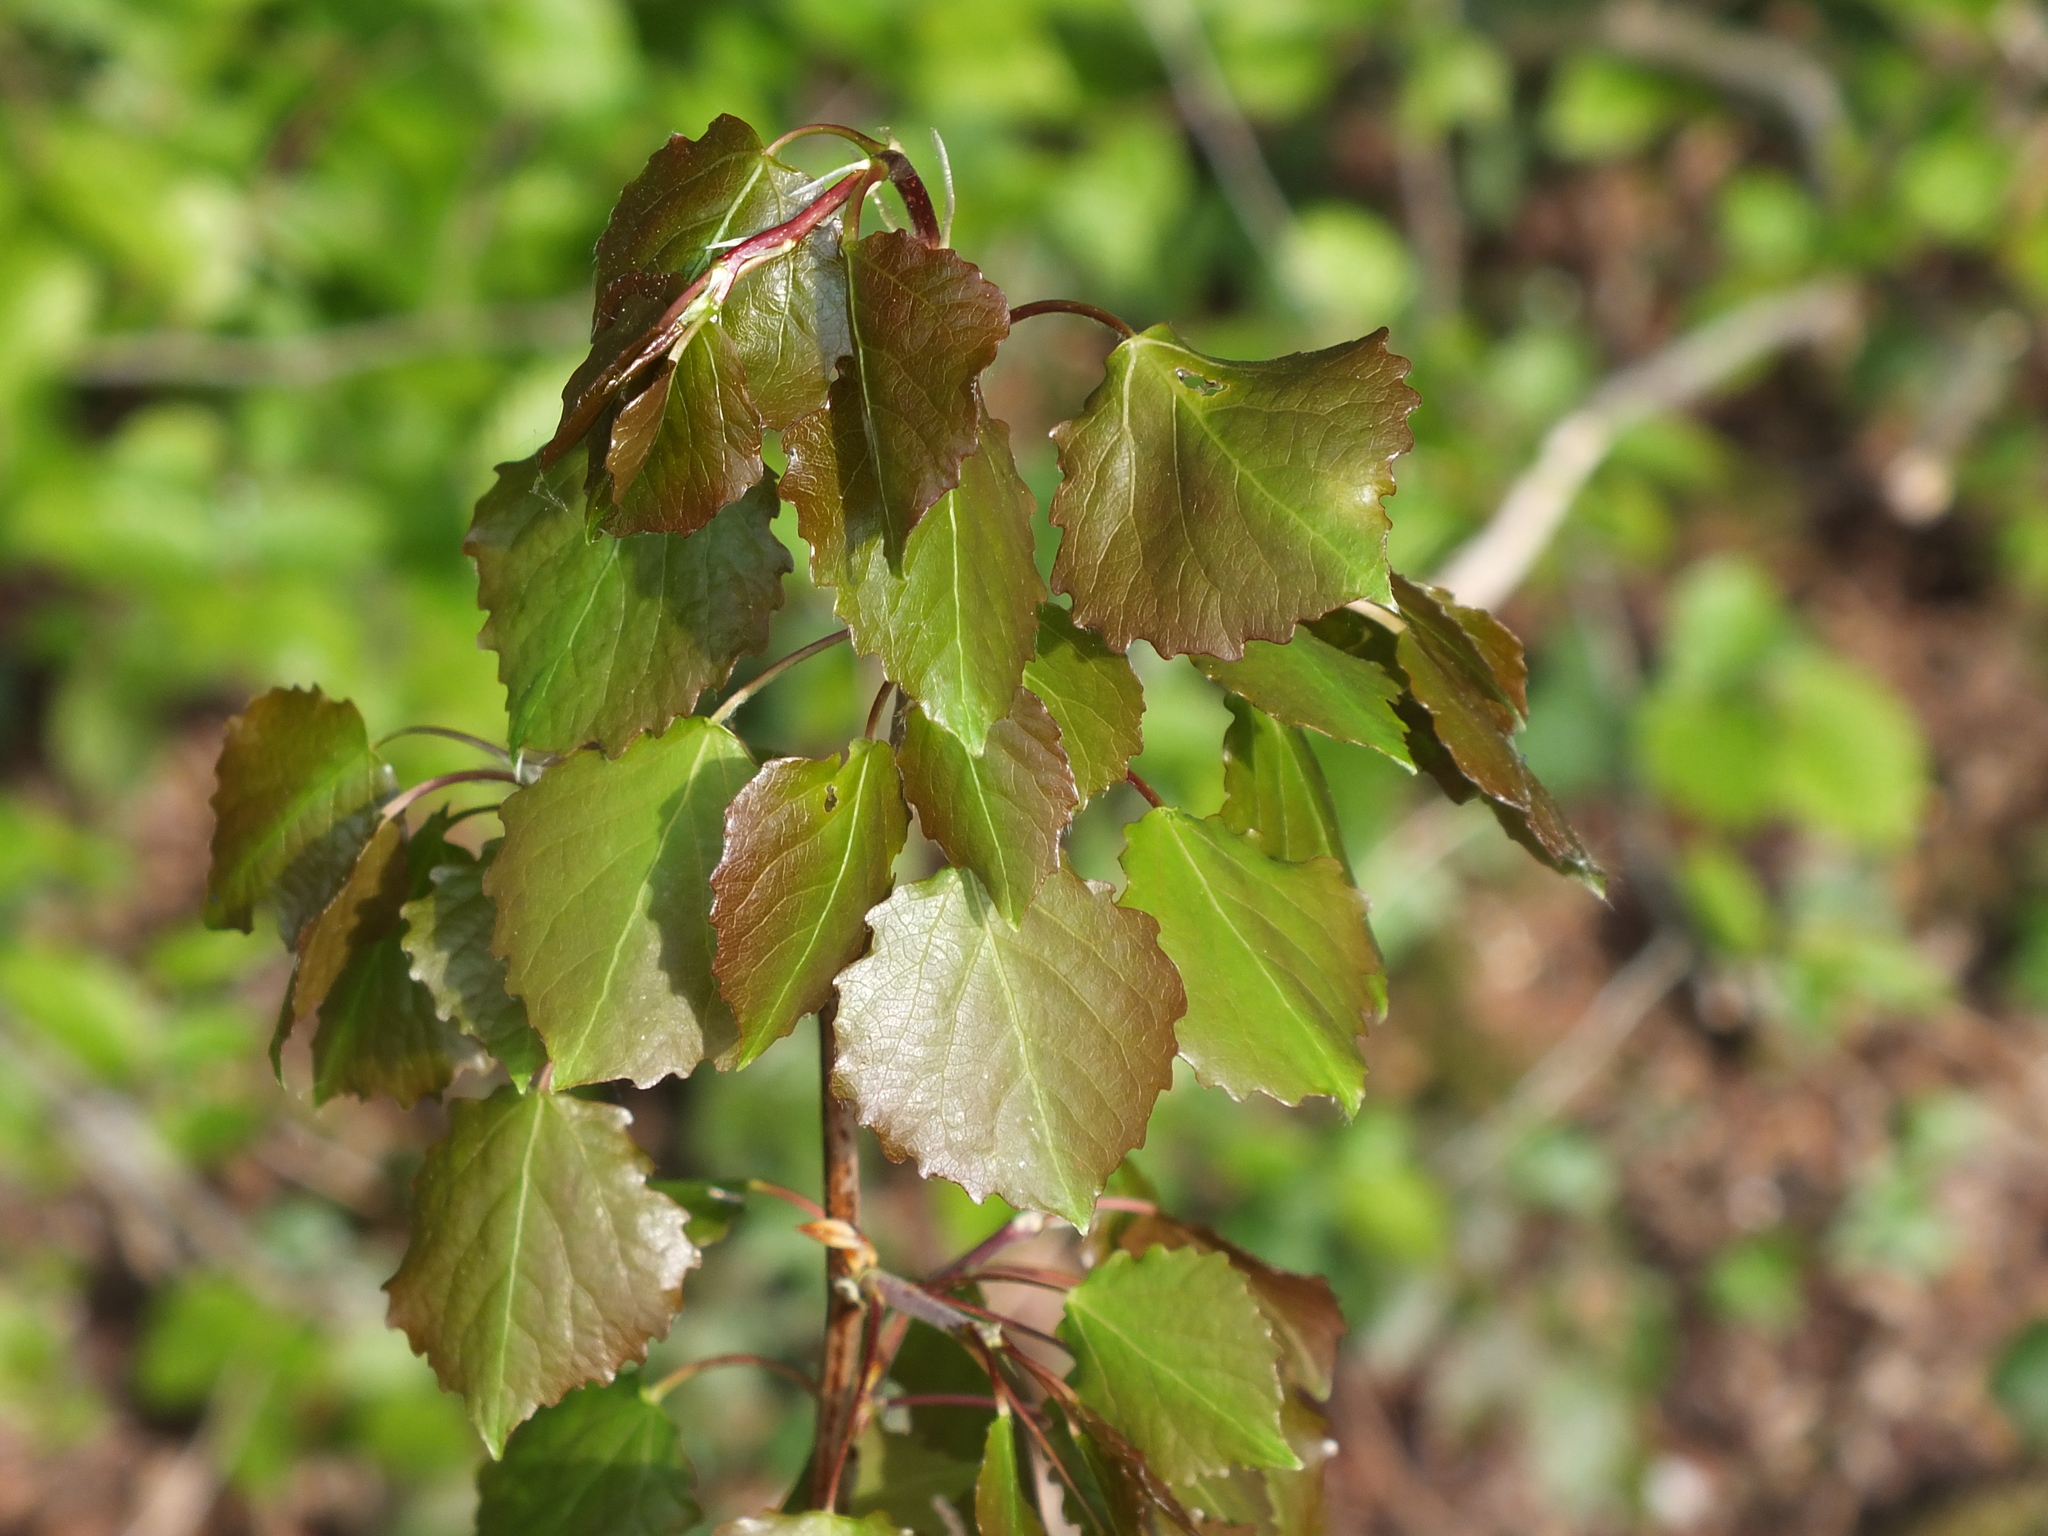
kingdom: Plantae
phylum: Tracheophyta
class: Magnoliopsida
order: Malpighiales
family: Salicaceae
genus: Populus
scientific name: Populus tremula
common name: European aspen
